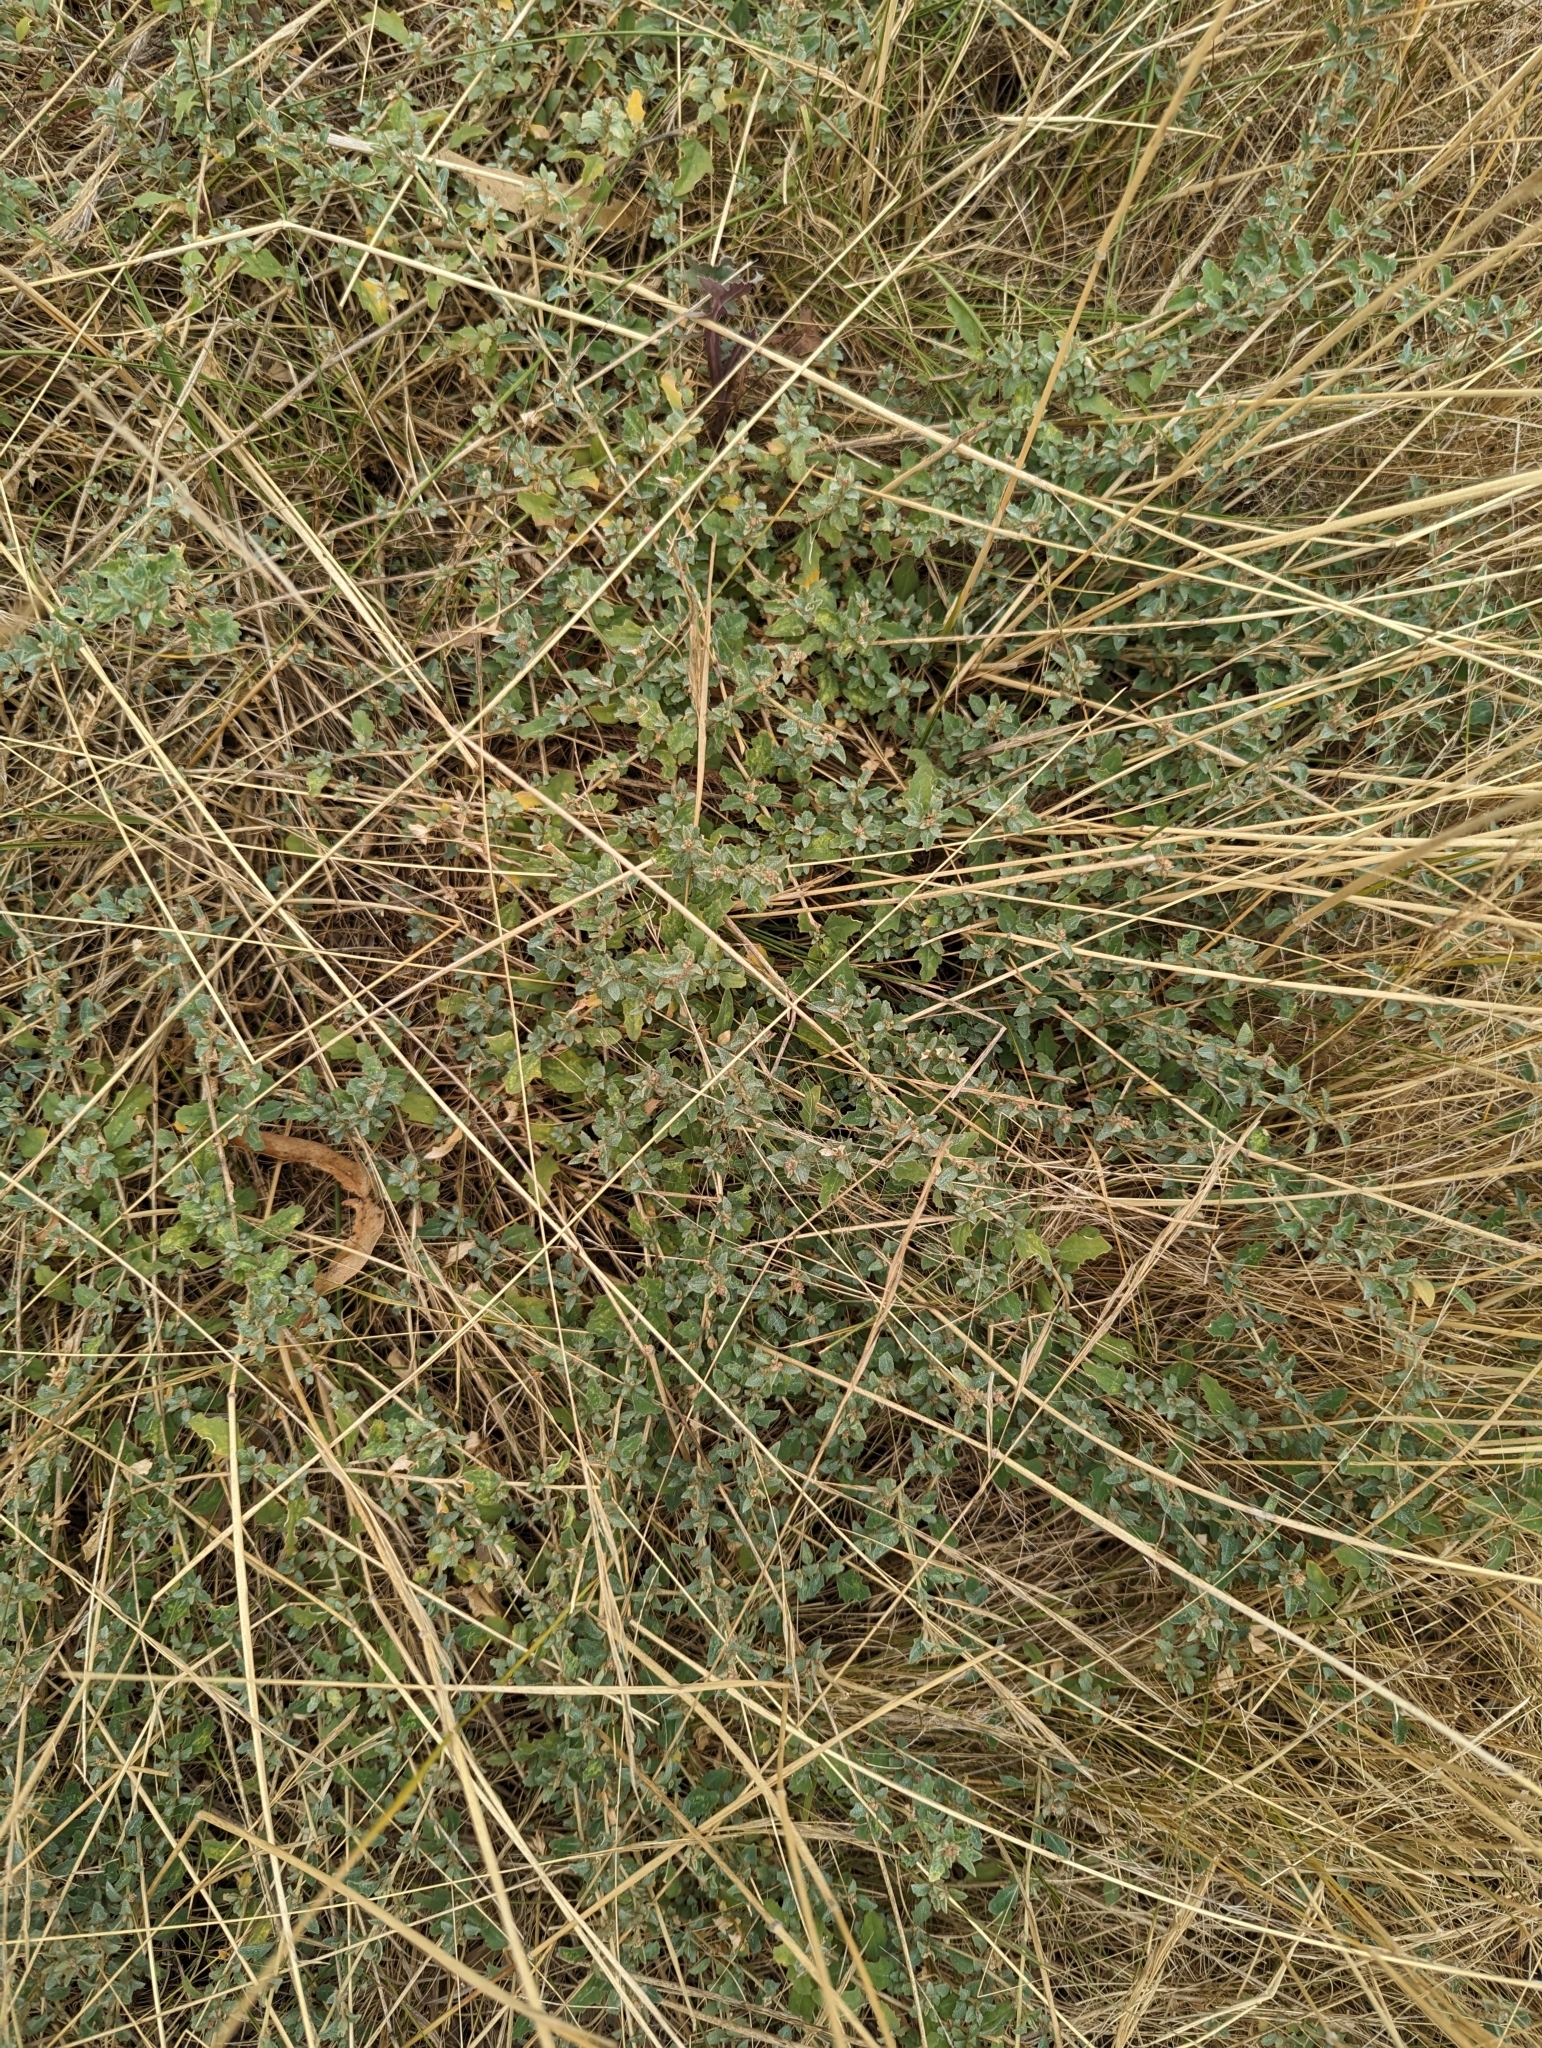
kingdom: Plantae
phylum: Tracheophyta
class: Magnoliopsida
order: Caryophyllales
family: Amaranthaceae
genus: Atriplex
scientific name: Atriplex semibaccata
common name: Australian saltbush
